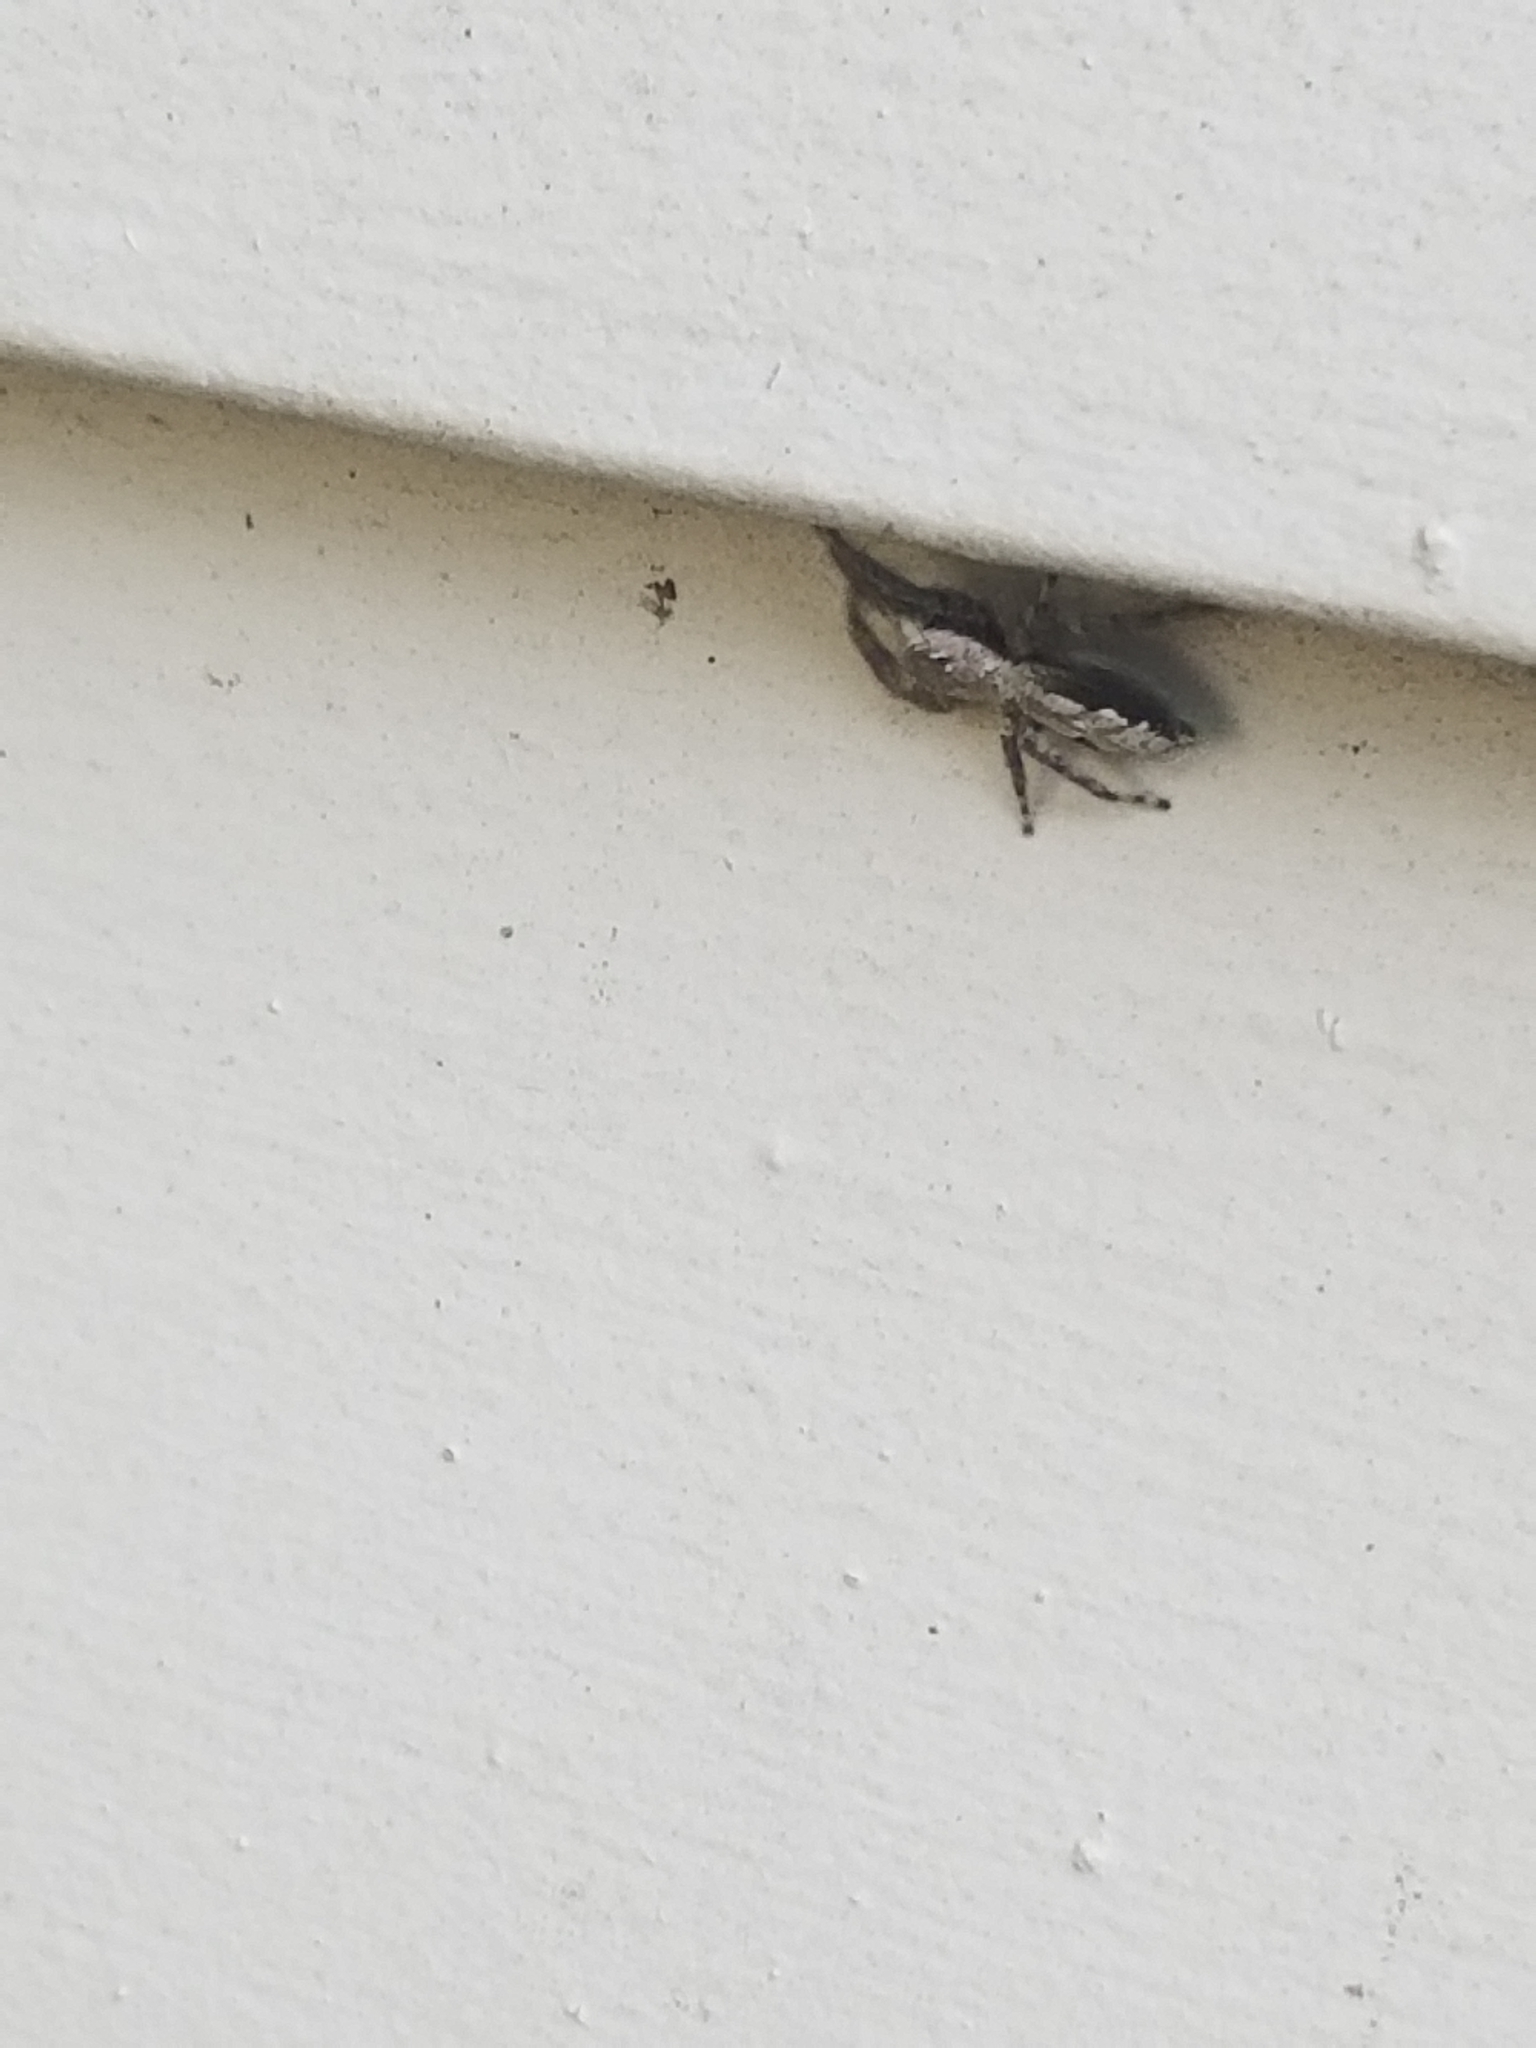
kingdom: Animalia
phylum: Arthropoda
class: Arachnida
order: Araneae
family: Salticidae
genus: Platycryptus
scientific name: Platycryptus undatus
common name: Tan jumping spider
